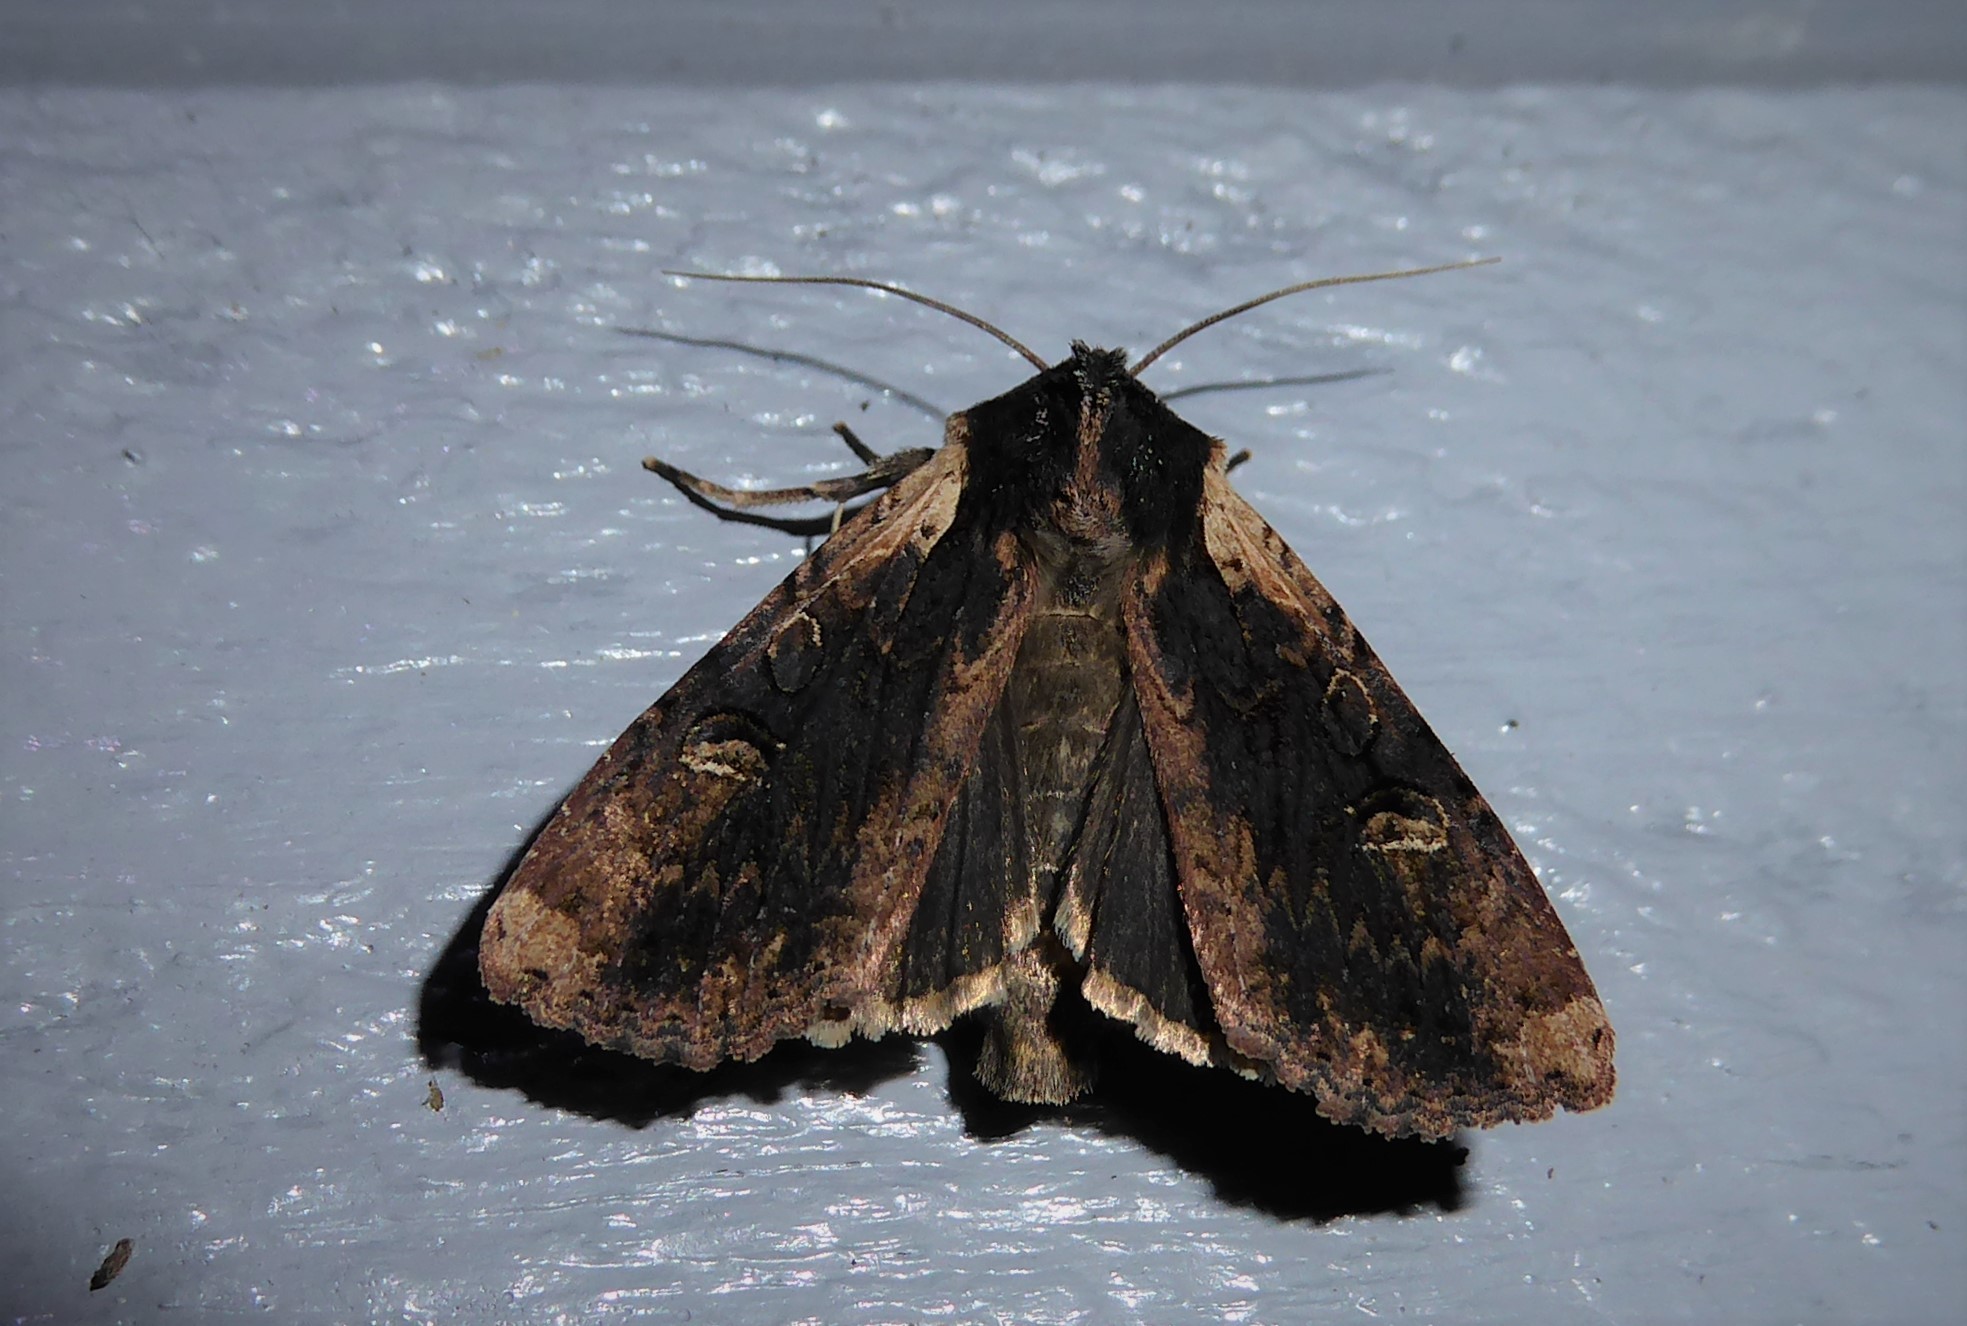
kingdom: Animalia
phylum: Arthropoda
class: Insecta
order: Lepidoptera
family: Noctuidae
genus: Ichneutica
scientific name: Ichneutica omoplaca
